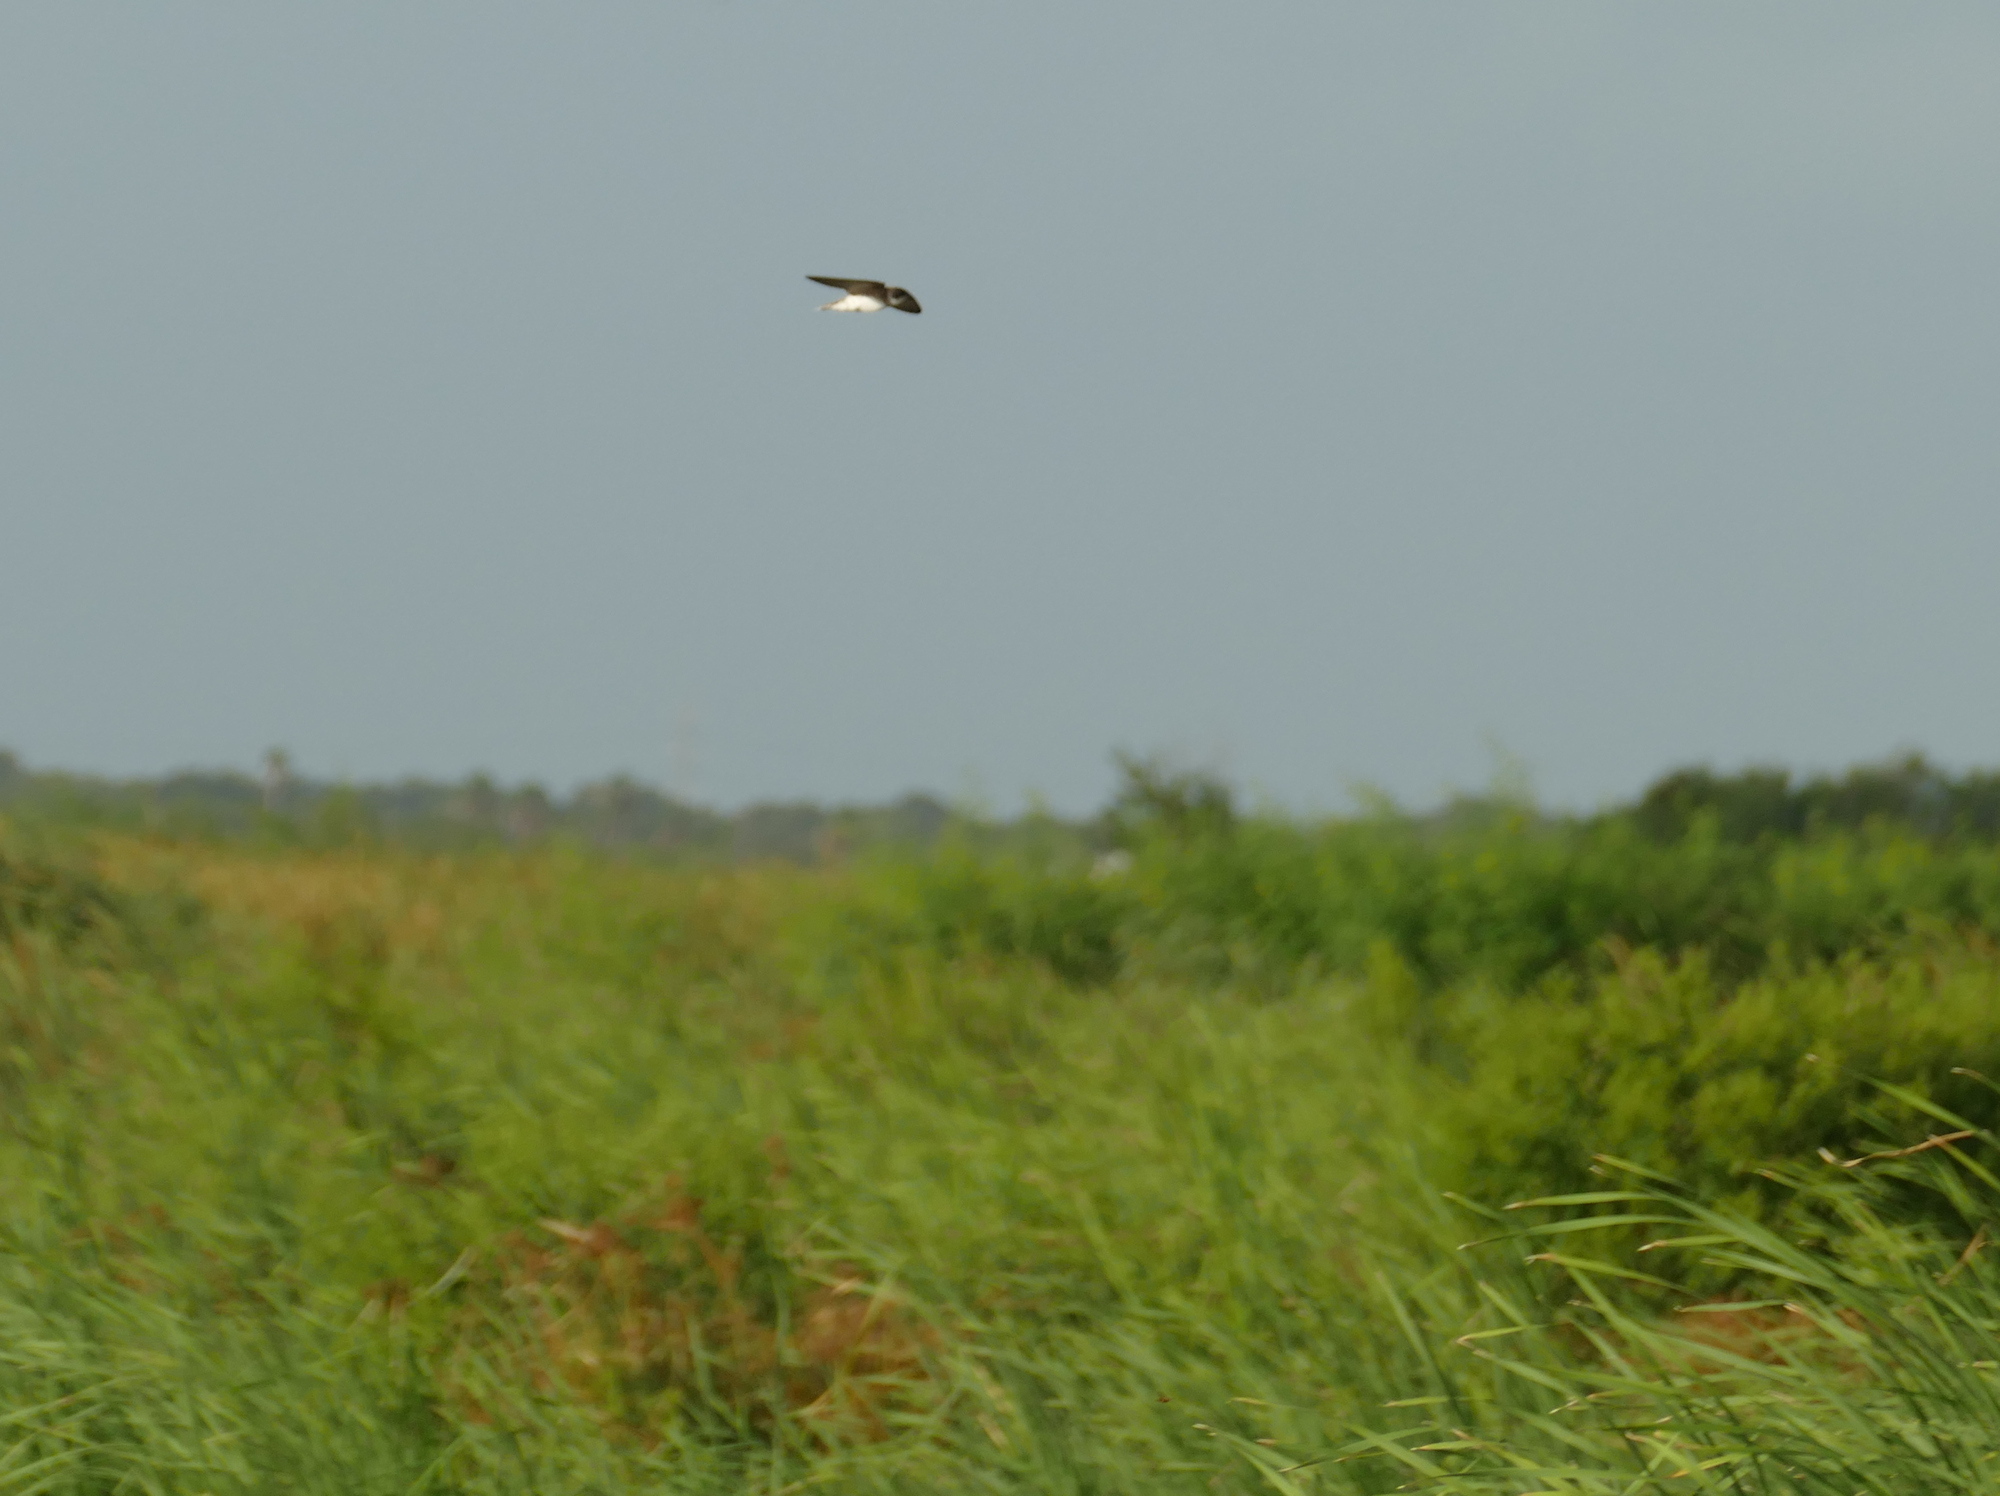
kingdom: Animalia
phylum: Chordata
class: Aves
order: Passeriformes
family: Hirundinidae
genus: Riparia
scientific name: Riparia riparia
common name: Sand martin
